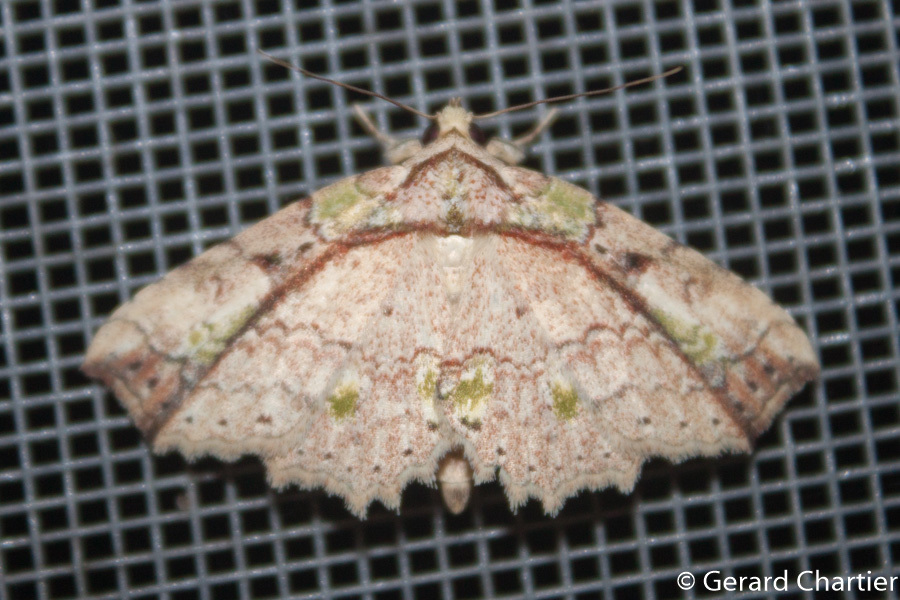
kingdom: Animalia
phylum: Arthropoda
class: Insecta
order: Lepidoptera
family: Erebidae
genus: Tamba
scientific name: Tamba mnionomera
